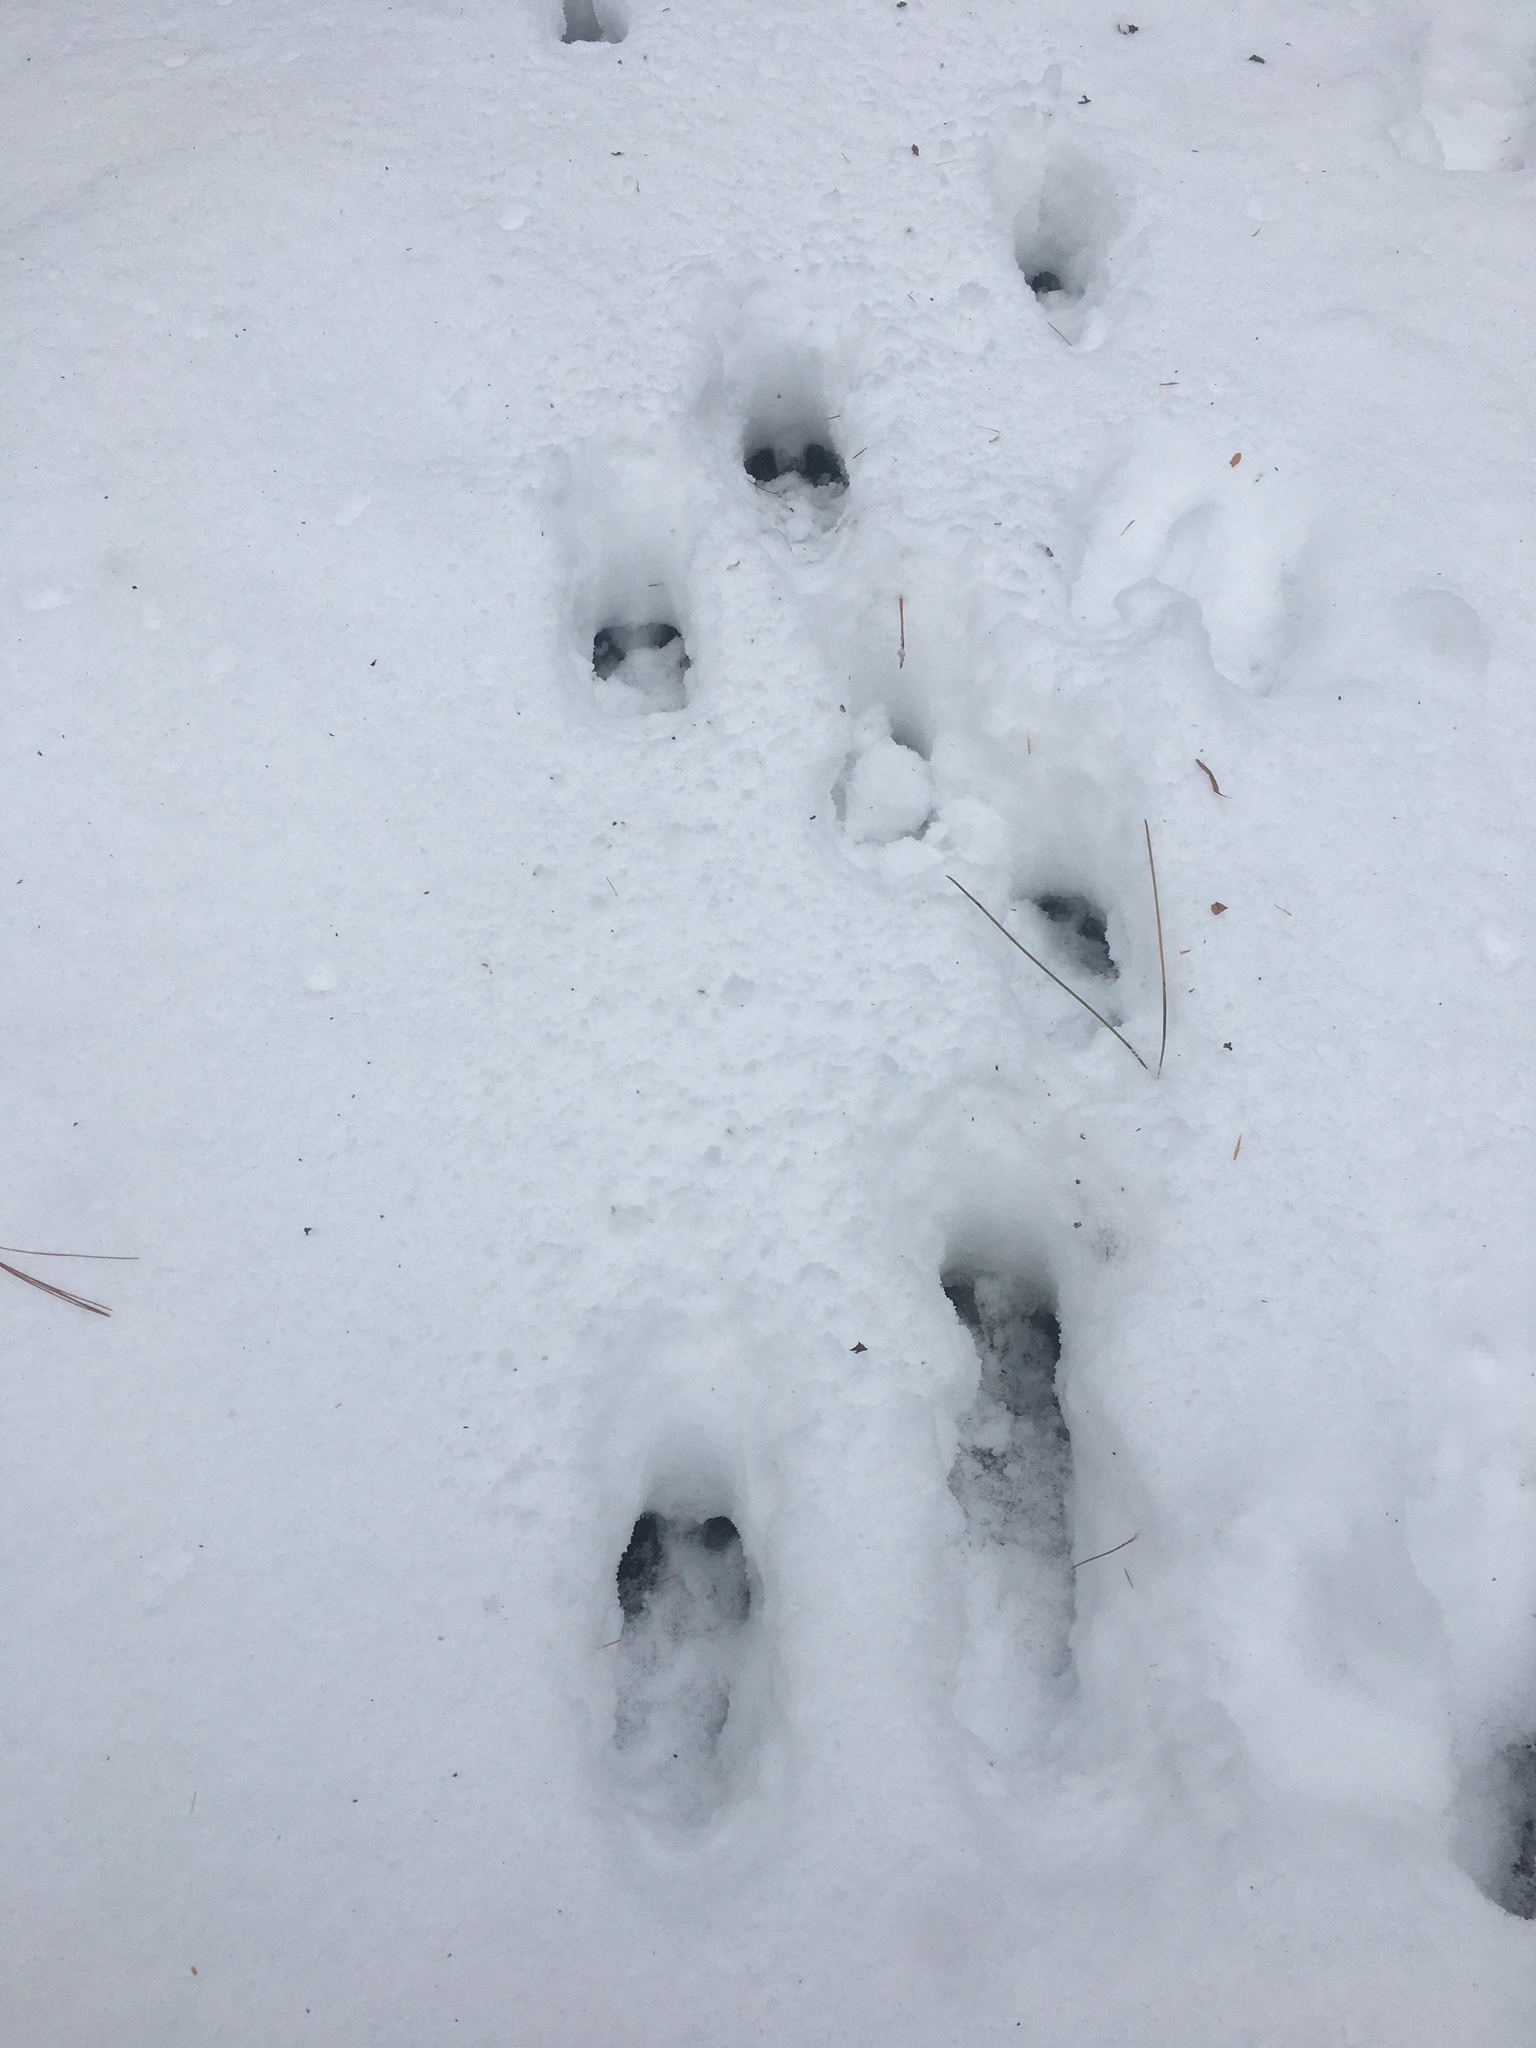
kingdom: Animalia
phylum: Chordata
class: Mammalia
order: Artiodactyla
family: Cervidae
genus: Odocoileus
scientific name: Odocoileus virginianus
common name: White-tailed deer
